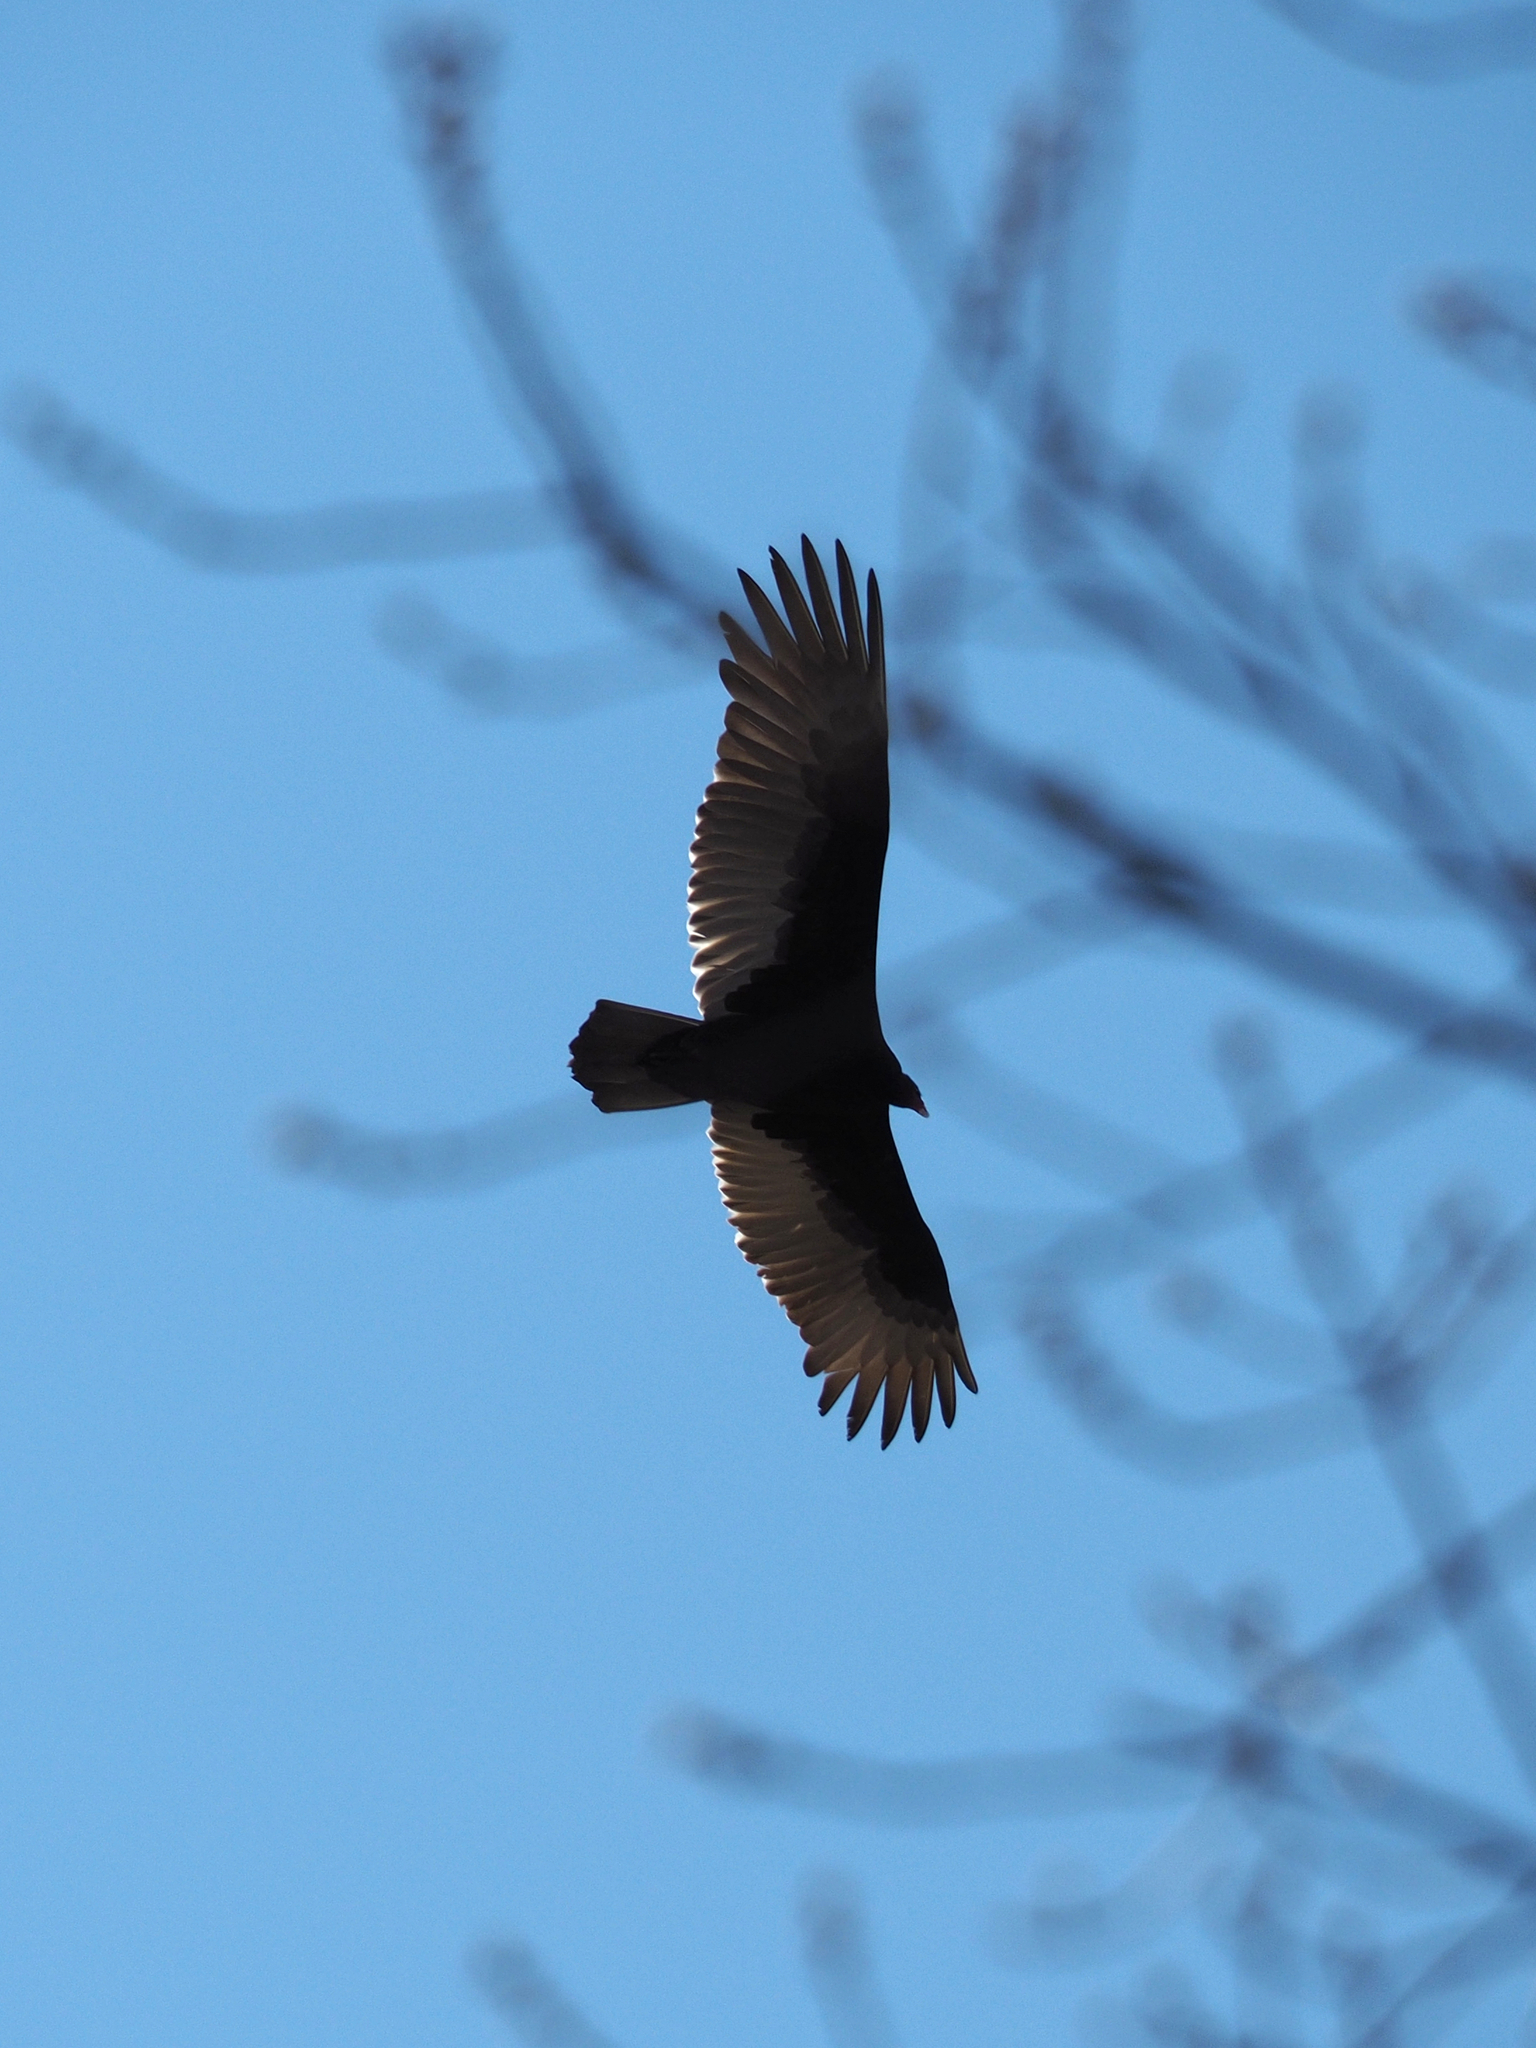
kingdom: Animalia
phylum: Chordata
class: Aves
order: Accipitriformes
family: Cathartidae
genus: Cathartes
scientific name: Cathartes aura
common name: Turkey vulture
